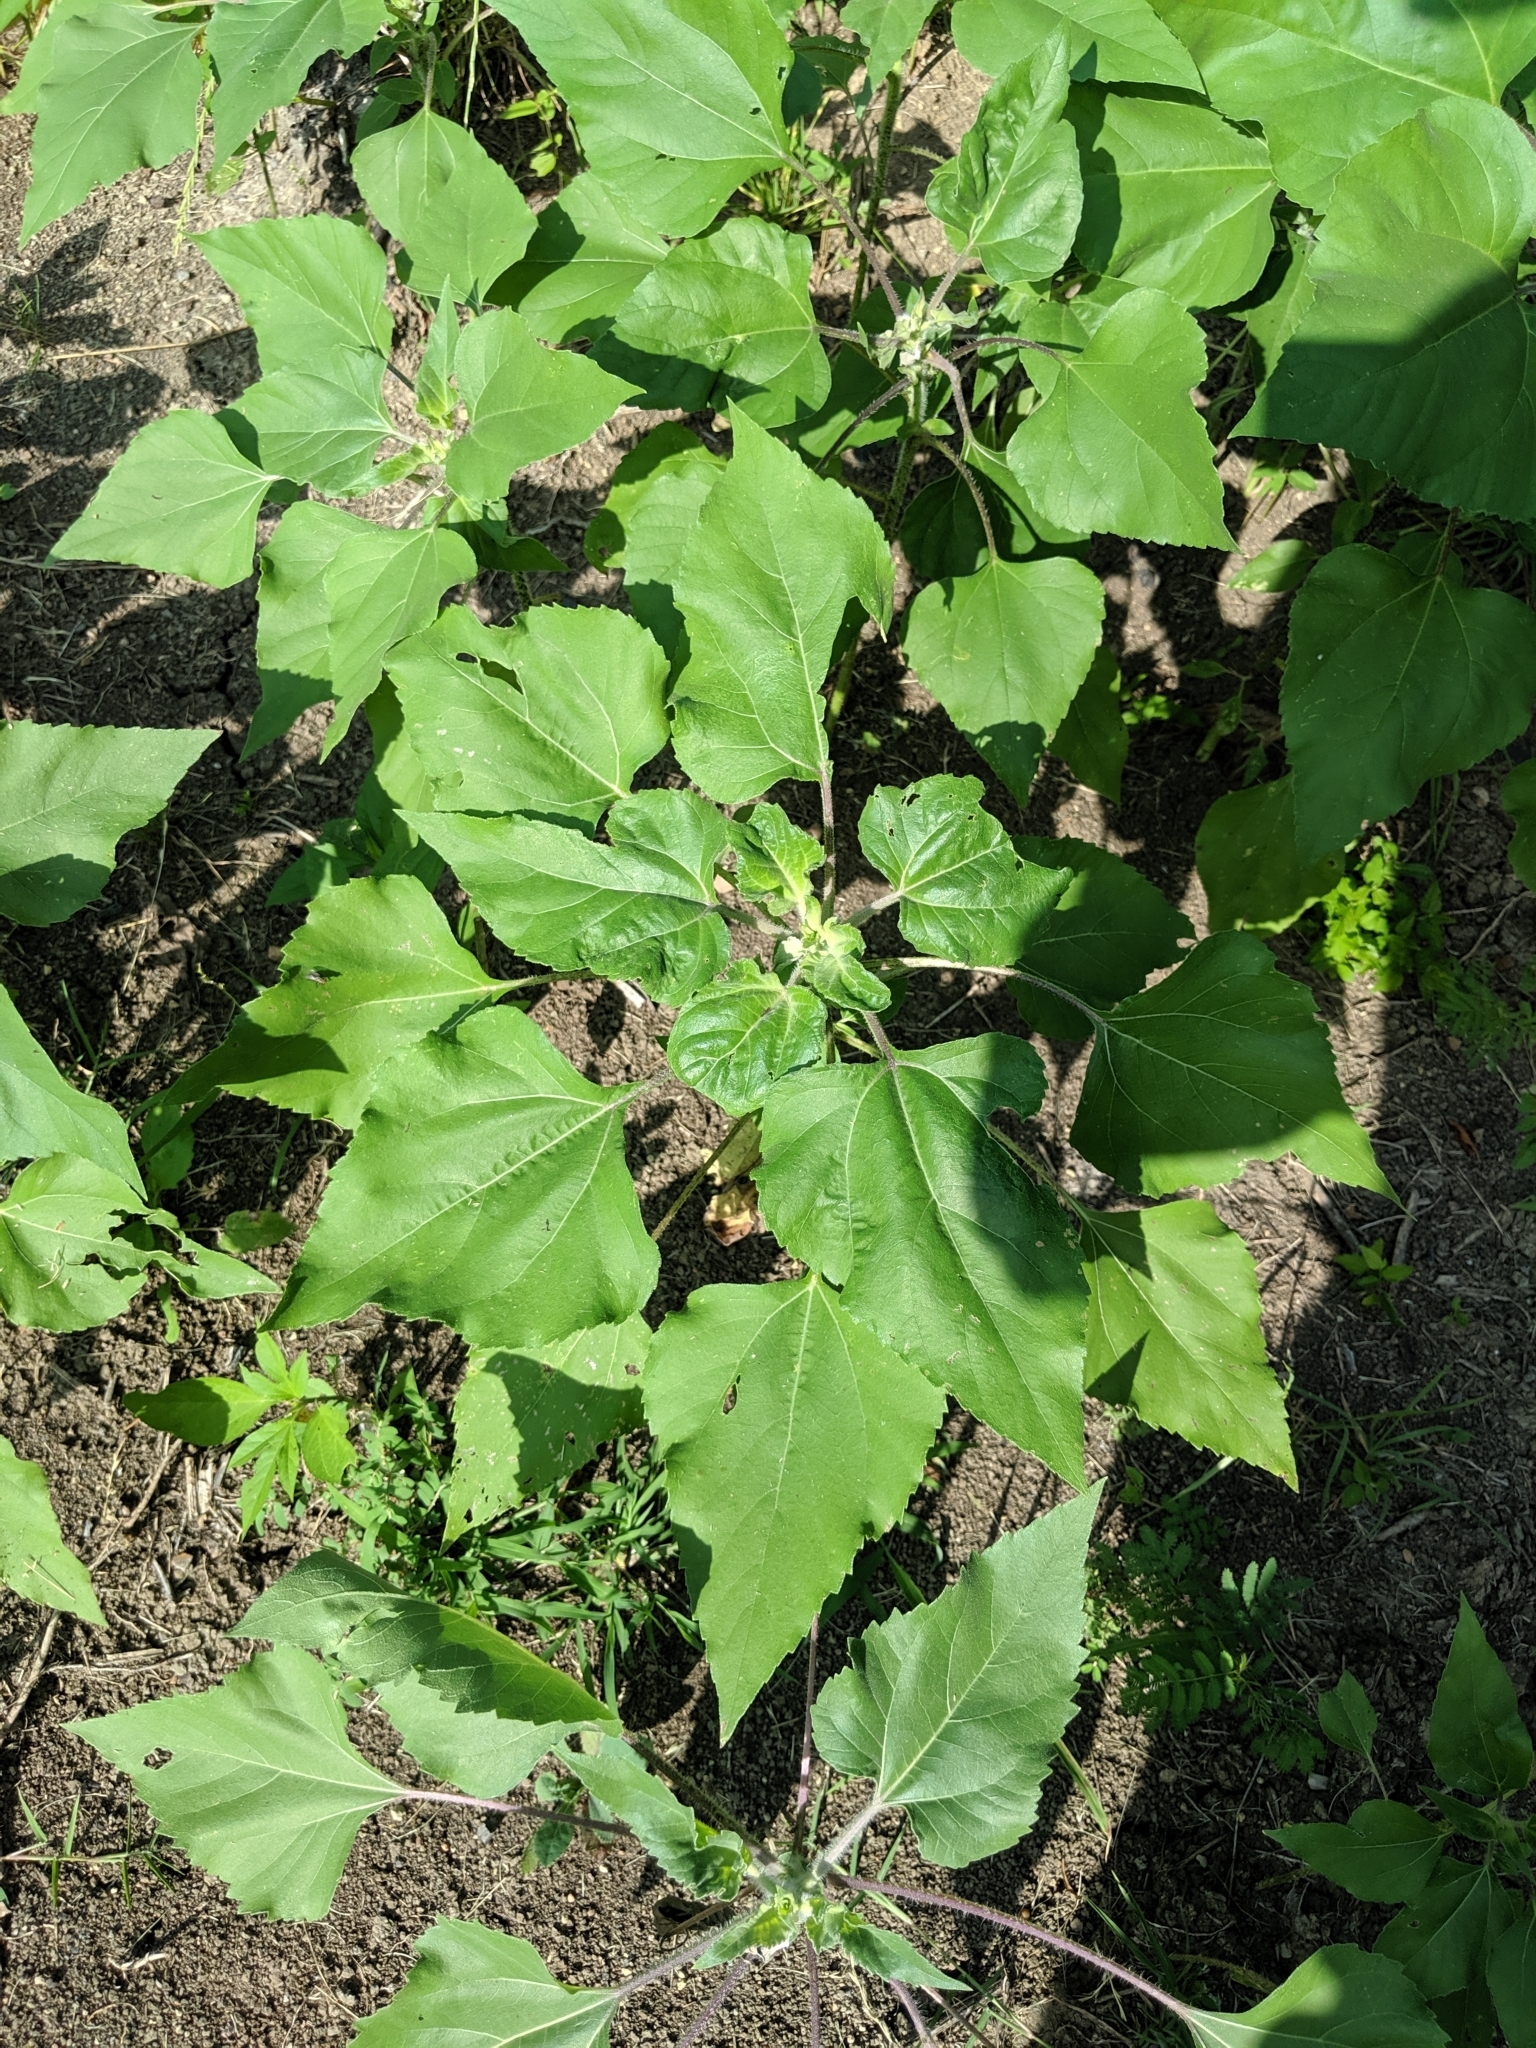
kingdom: Plantae
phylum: Tracheophyta
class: Magnoliopsida
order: Asterales
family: Asteraceae
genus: Helianthus
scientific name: Helianthus annuus
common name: Sunflower
